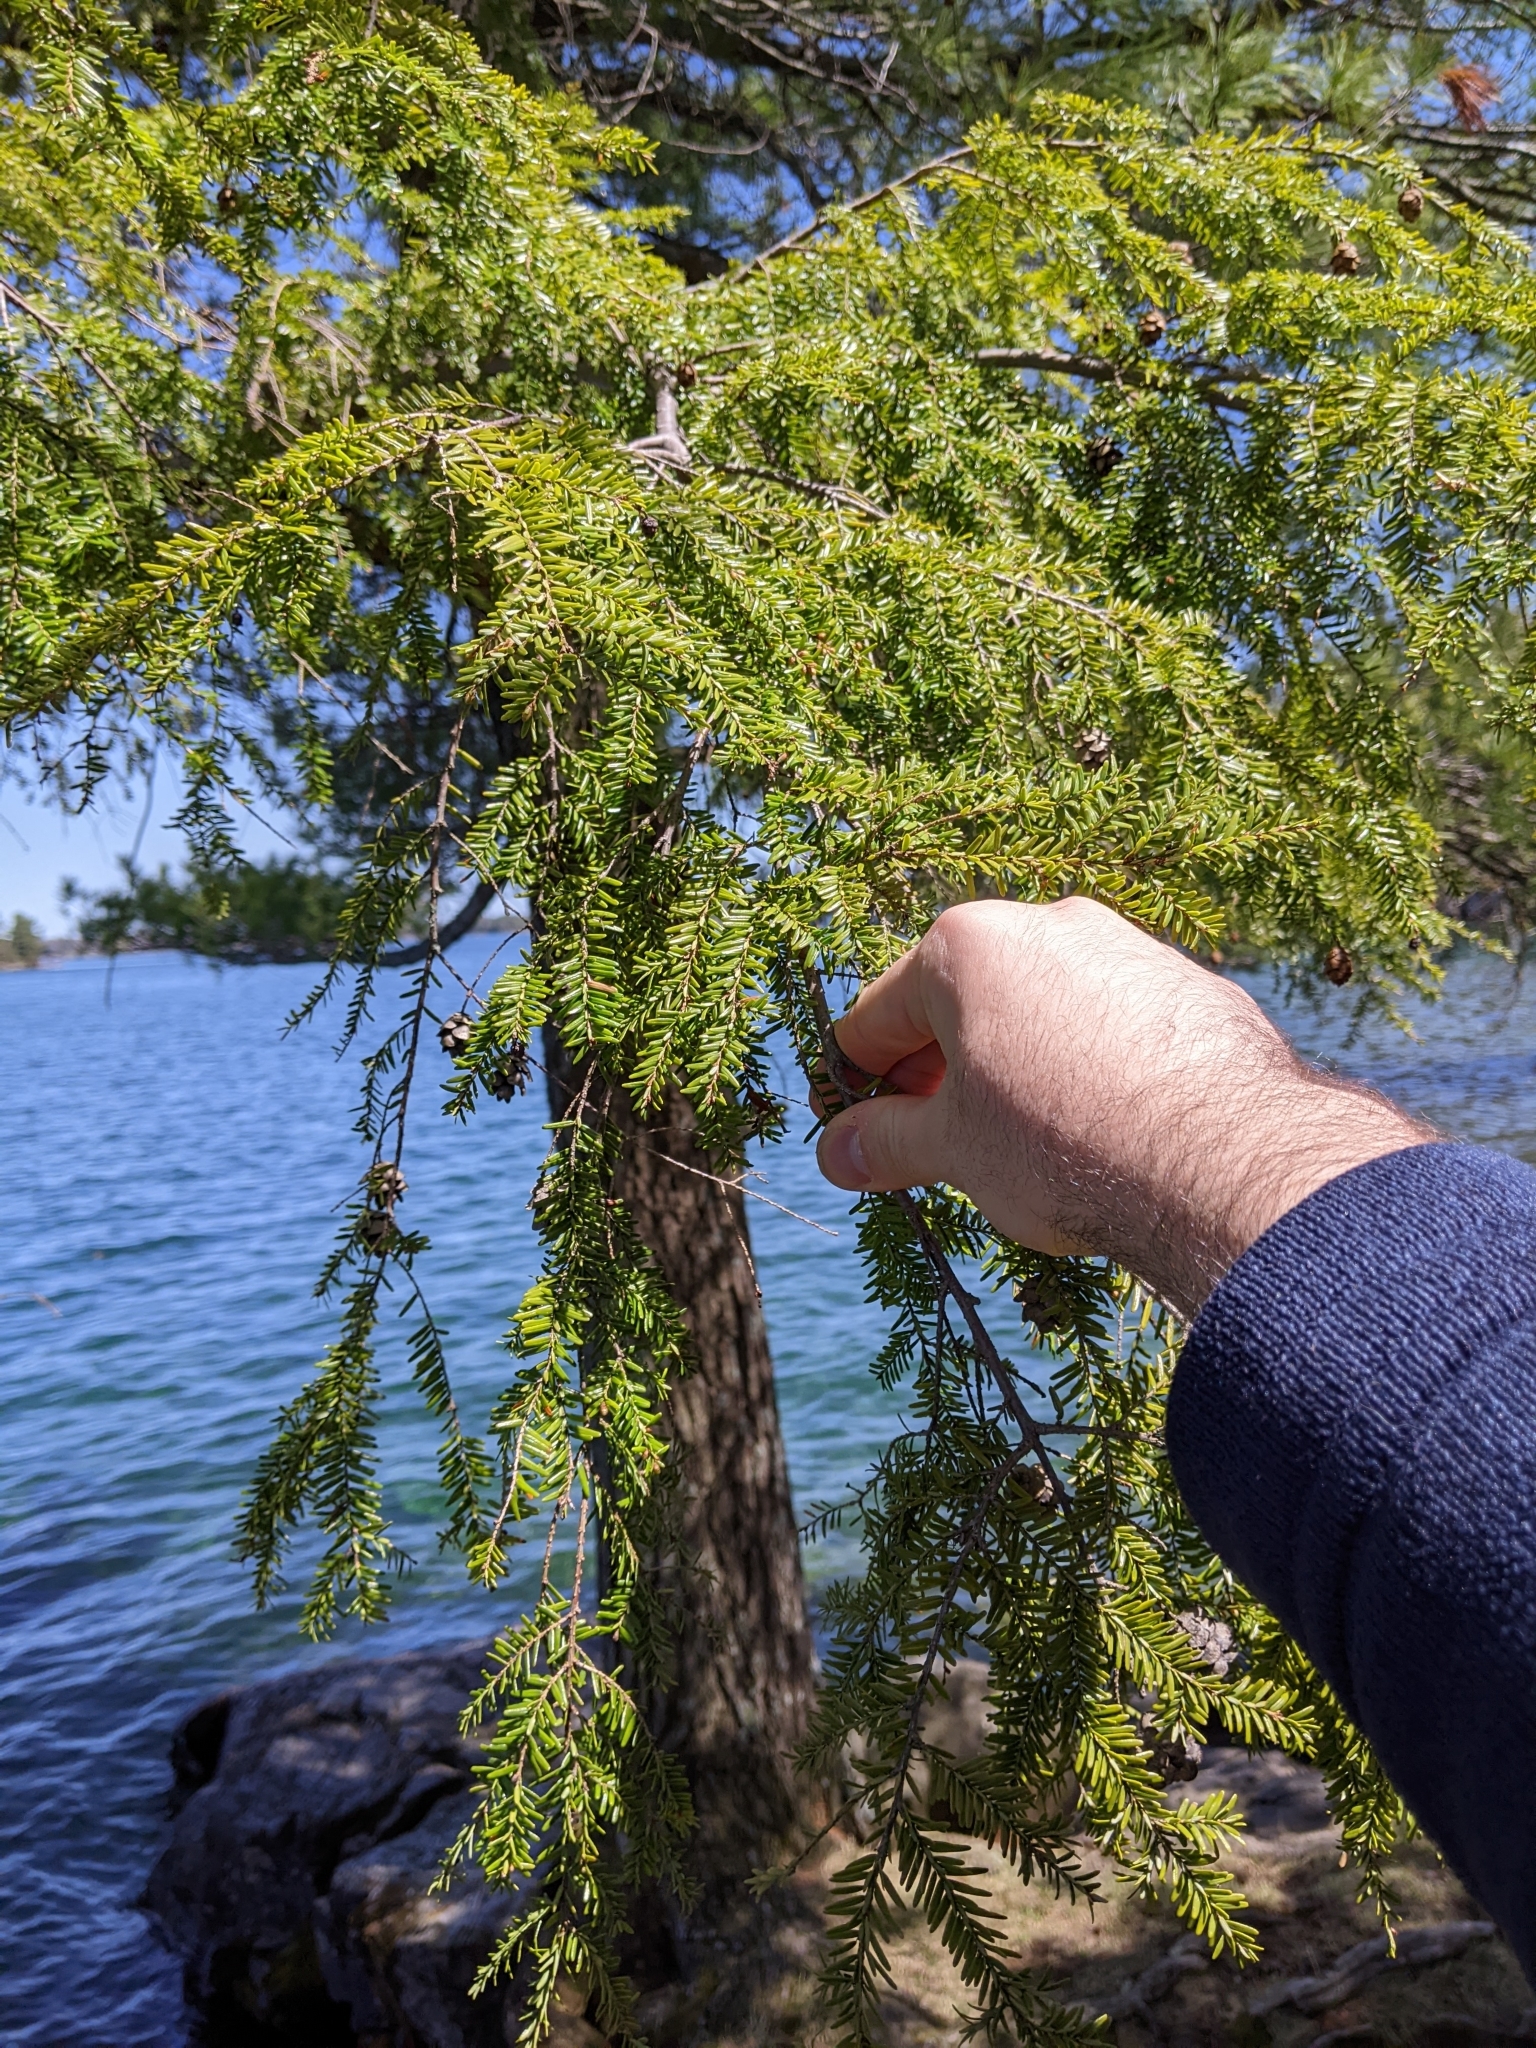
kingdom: Plantae
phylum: Tracheophyta
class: Pinopsida
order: Pinales
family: Pinaceae
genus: Tsuga
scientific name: Tsuga canadensis
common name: Eastern hemlock
